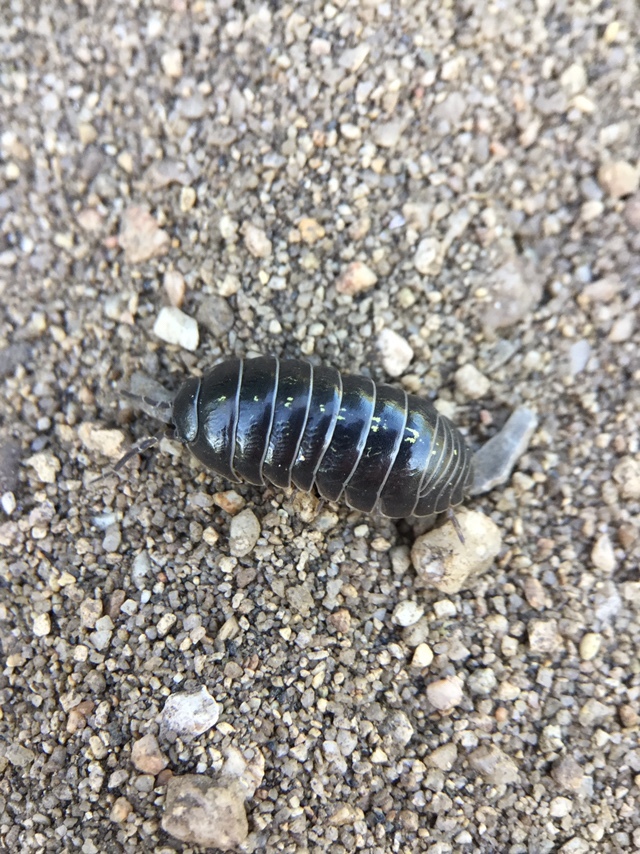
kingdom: Animalia
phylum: Arthropoda
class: Malacostraca
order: Isopoda
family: Armadillidiidae
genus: Armadillidium
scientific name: Armadillidium vulgare
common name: Common pill woodlouse
